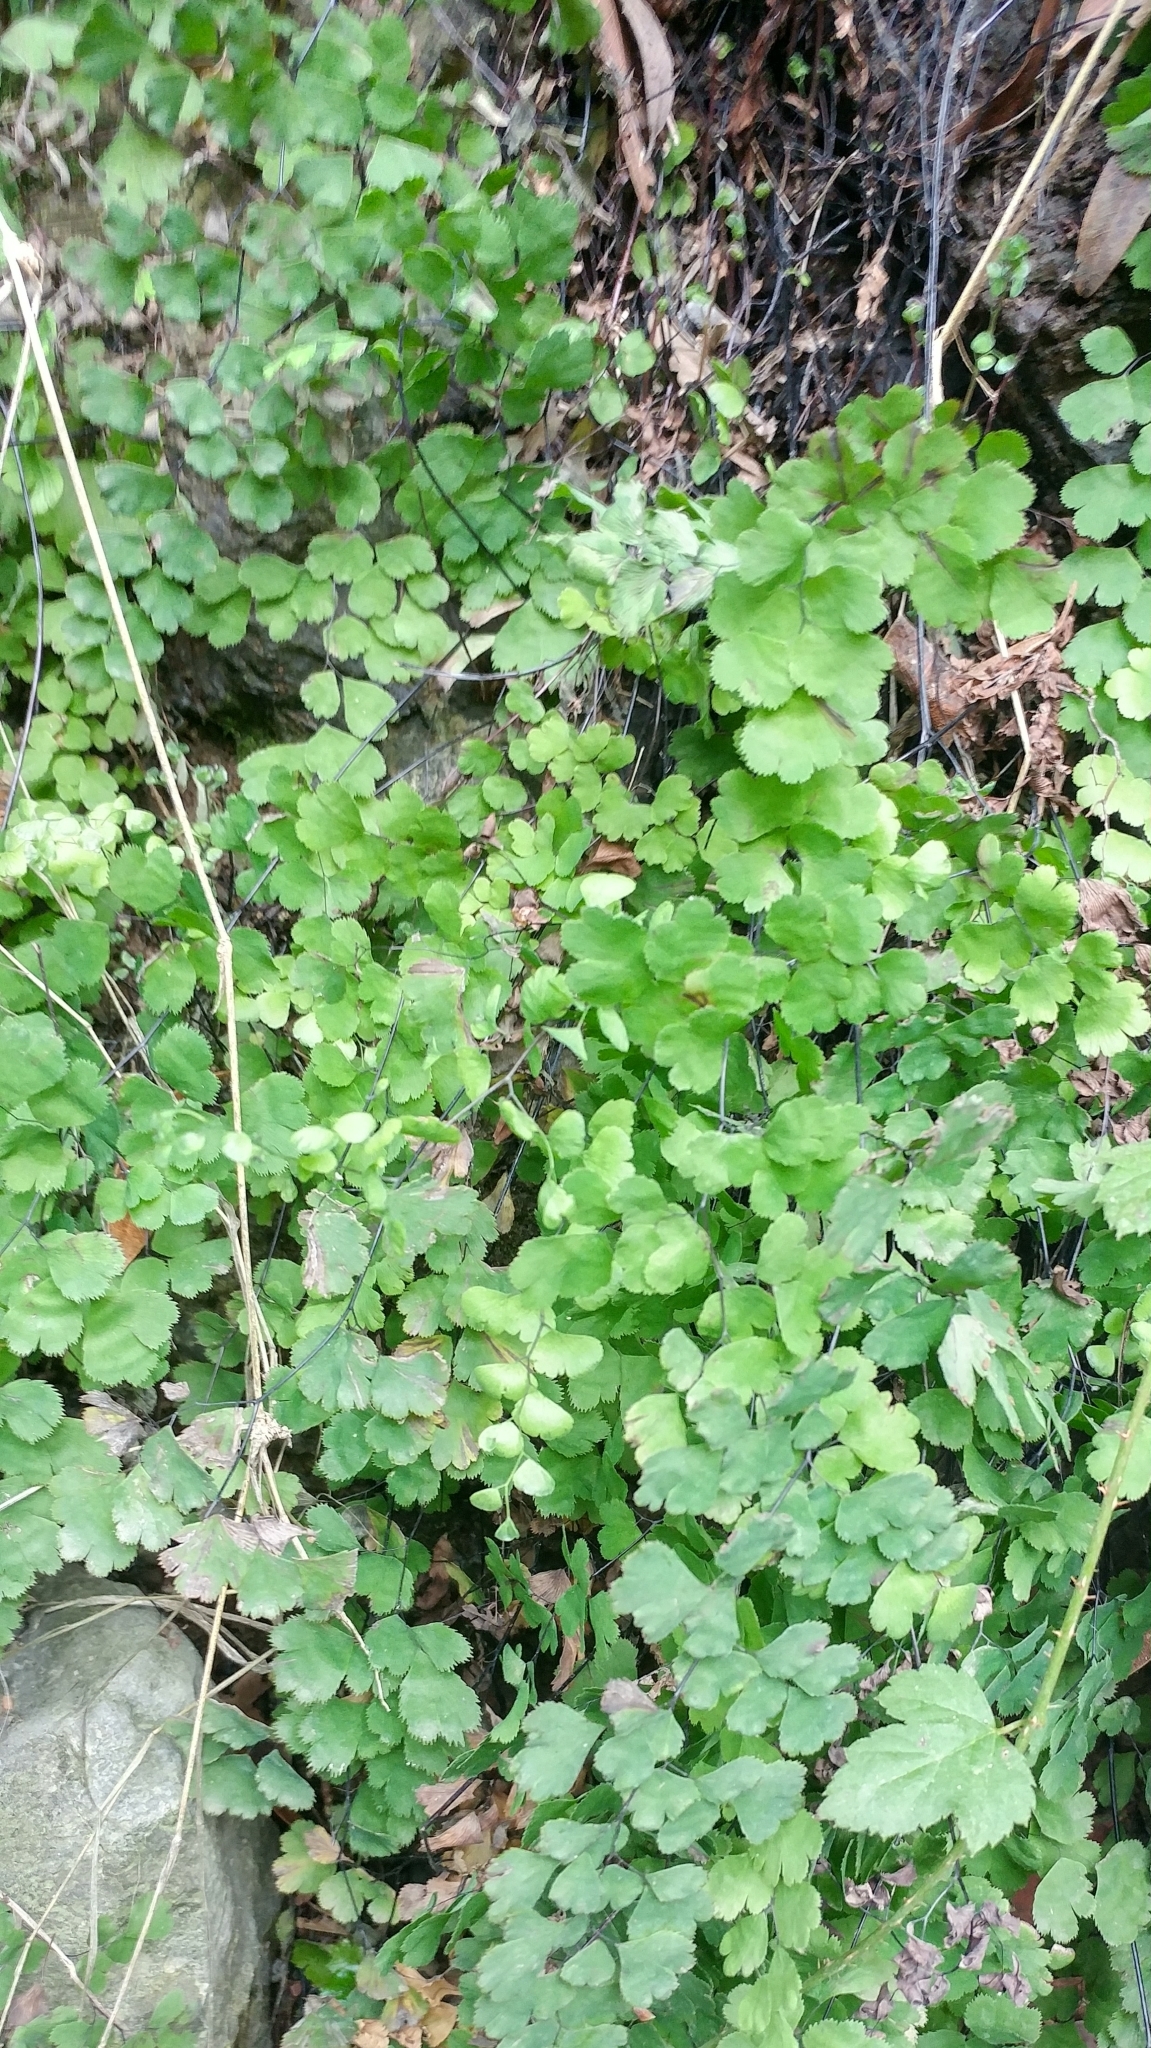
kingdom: Plantae
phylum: Tracheophyta
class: Polypodiopsida
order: Polypodiales
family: Pteridaceae
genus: Adiantum
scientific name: Adiantum capillus-veneris
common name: Maidenhair fern
